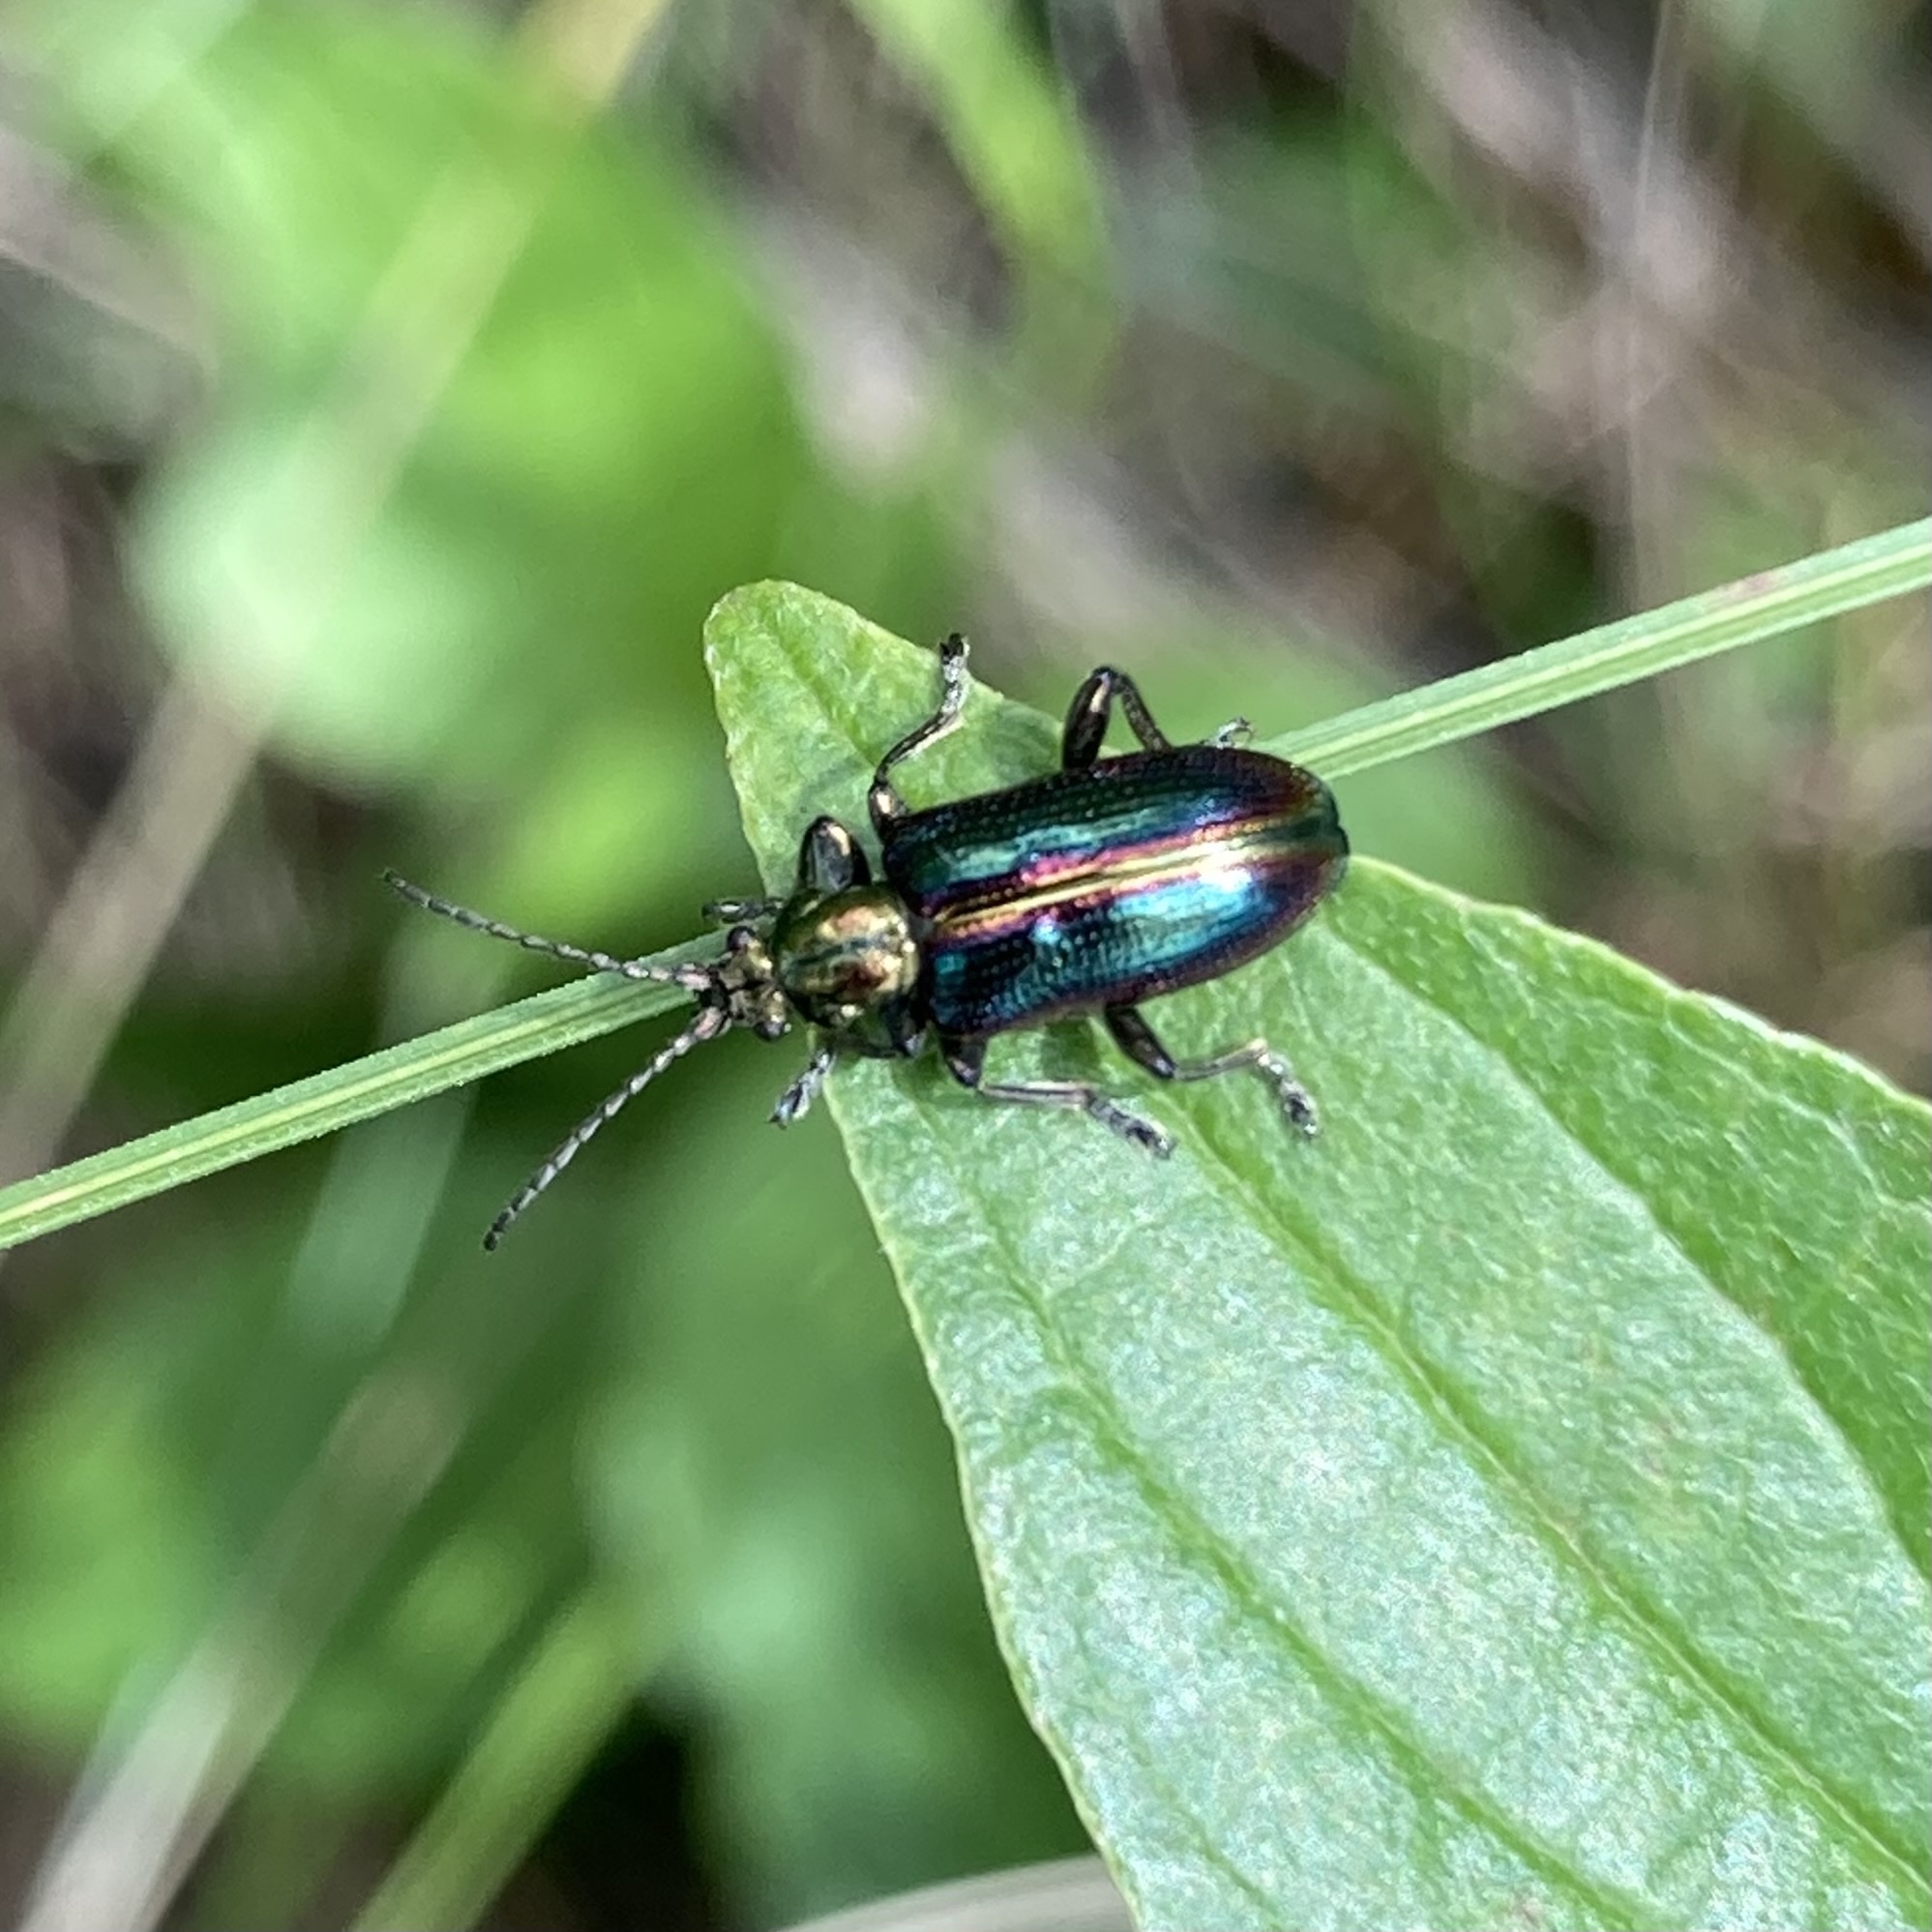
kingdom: Animalia
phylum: Arthropoda
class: Insecta
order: Coleoptera
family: Chrysomelidae
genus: Plateumaris
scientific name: Plateumaris schaefferi
